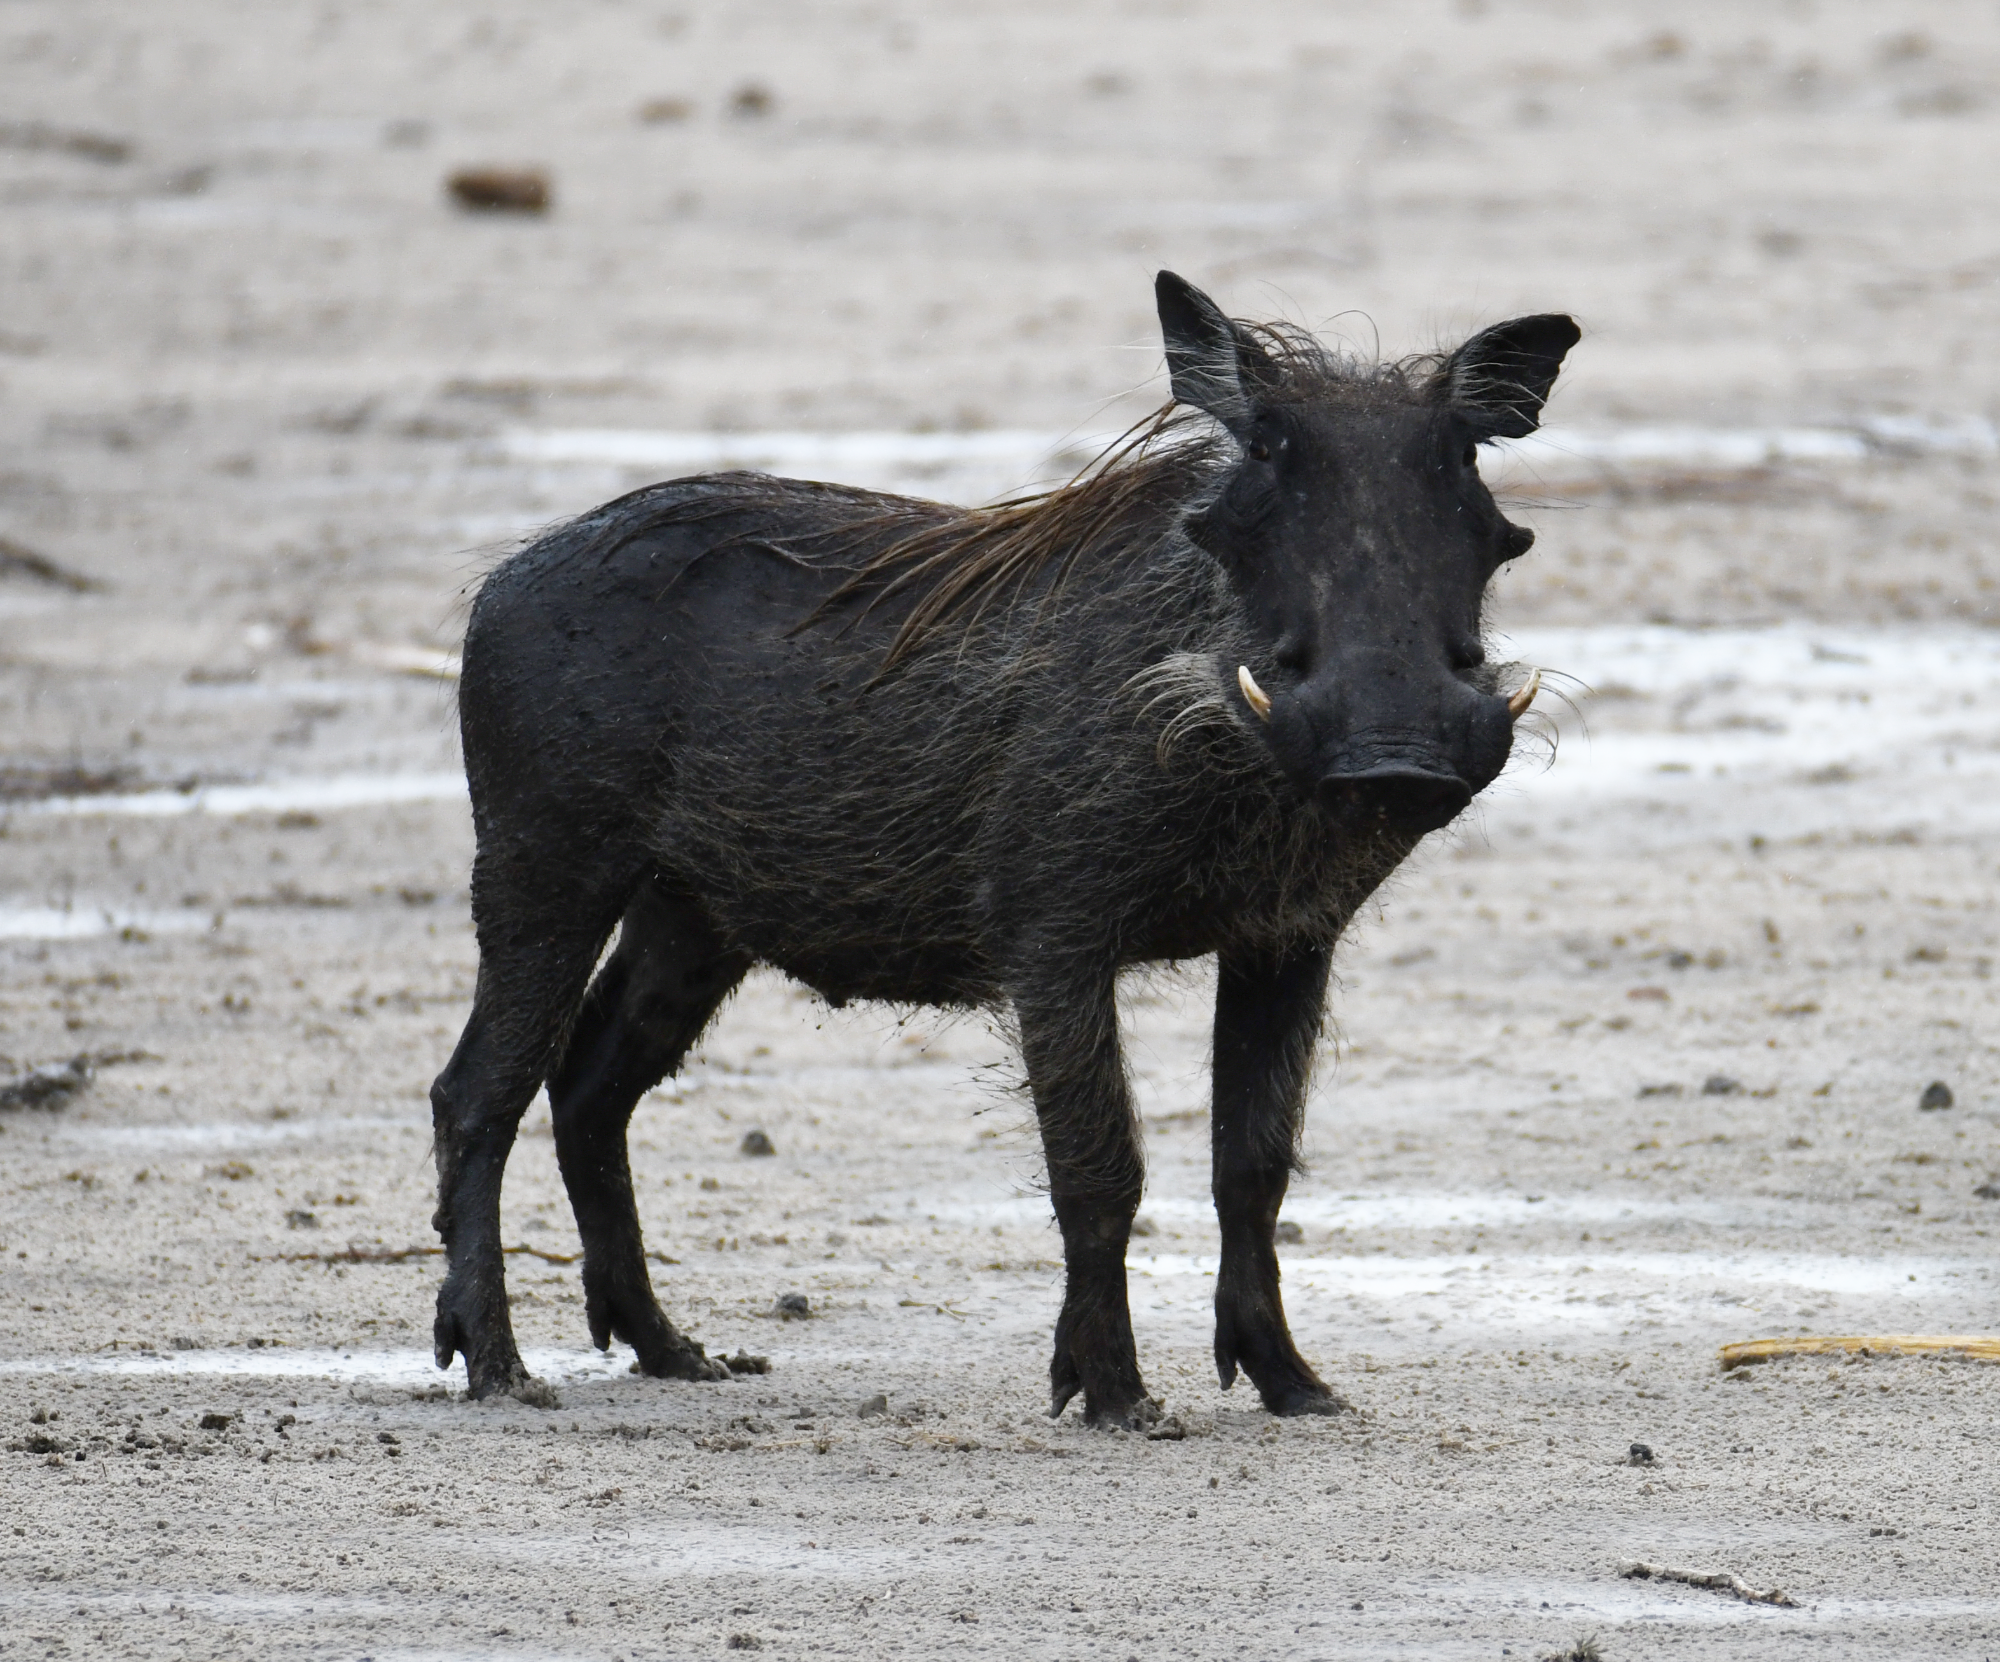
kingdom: Animalia
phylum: Chordata
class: Mammalia
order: Artiodactyla
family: Suidae
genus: Phacochoerus
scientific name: Phacochoerus africanus
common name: Common warthog
